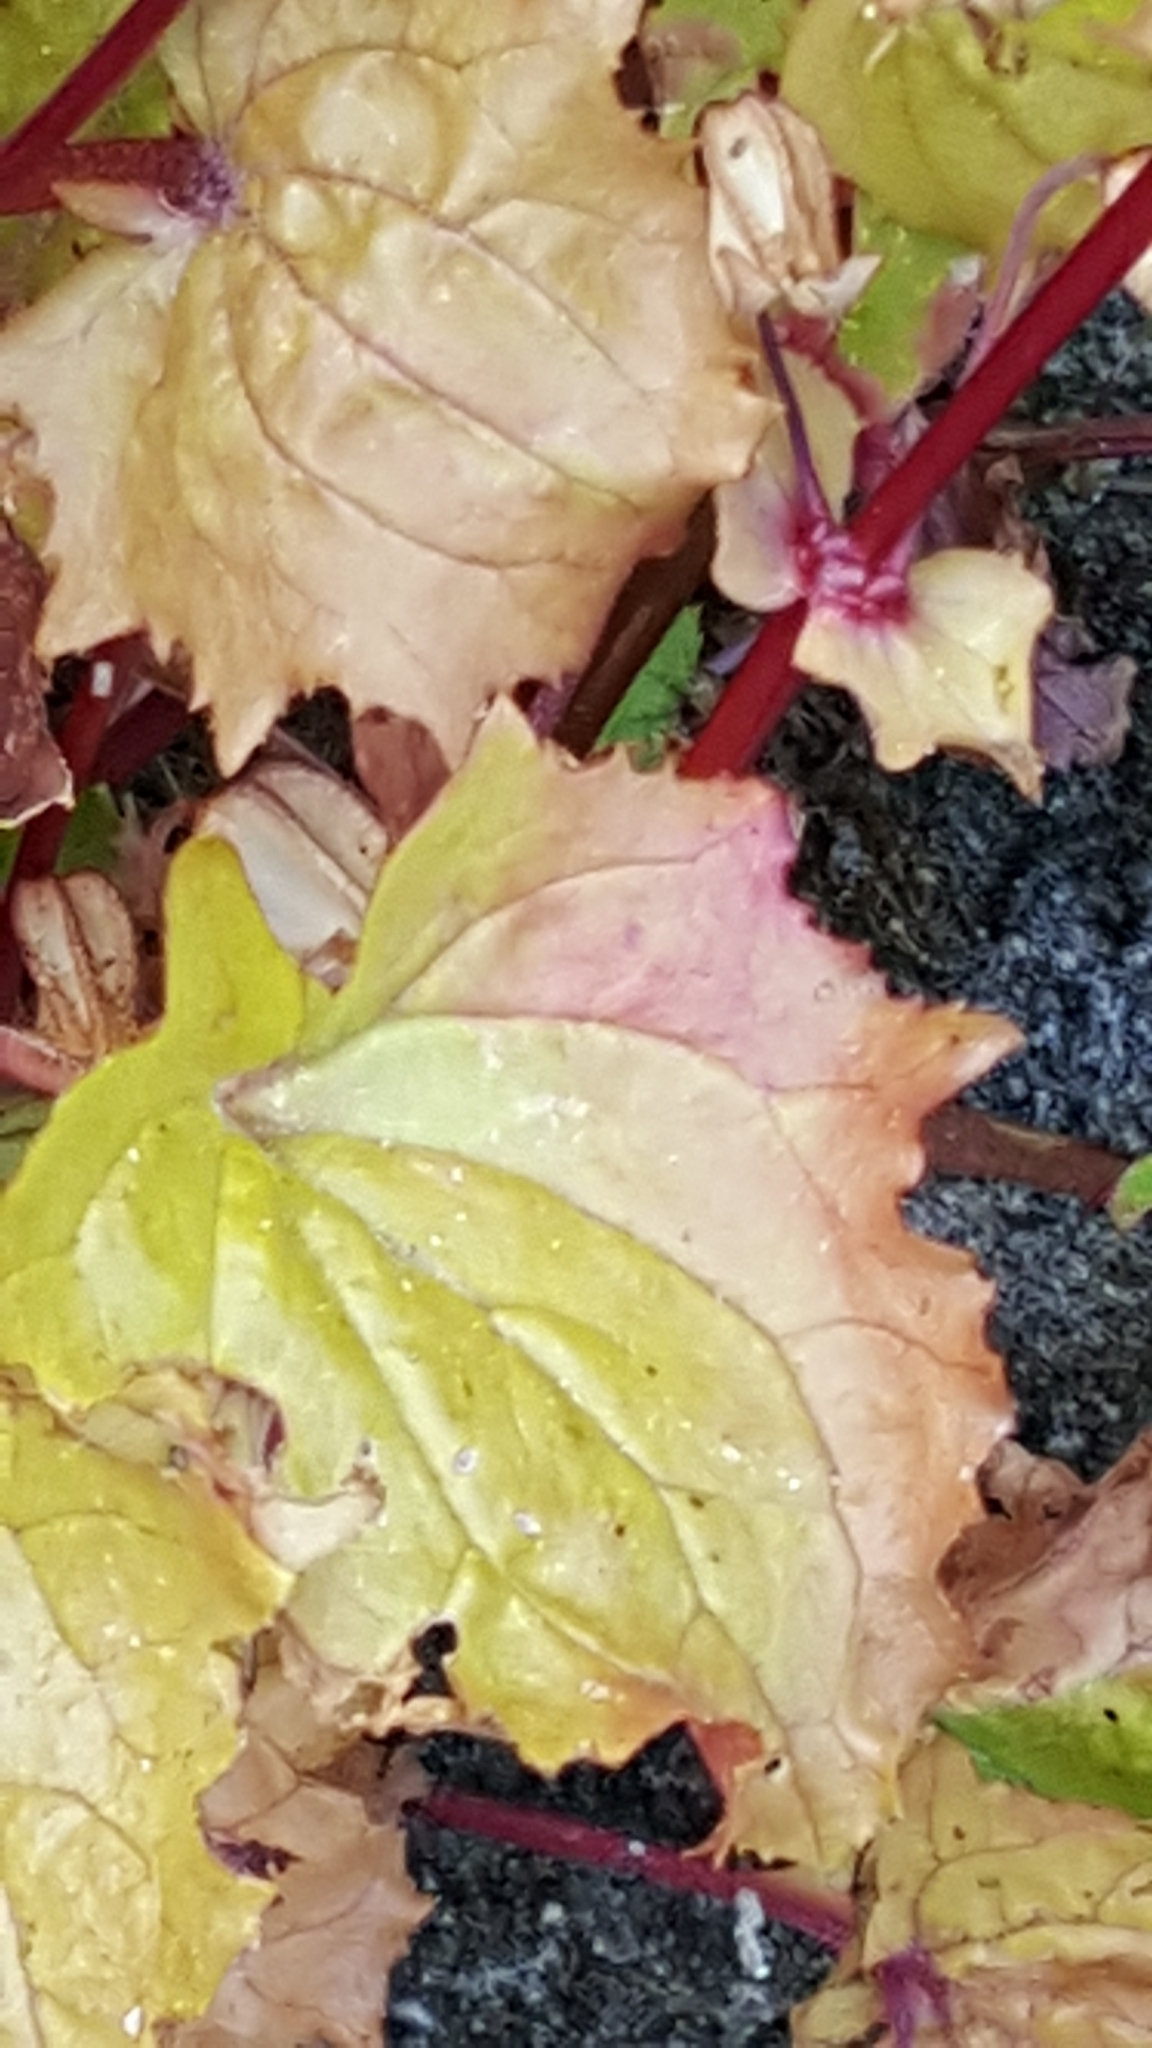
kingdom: Plantae
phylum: Tracheophyta
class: Magnoliopsida
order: Lamiales
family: Phrymaceae
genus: Erythranthe
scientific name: Erythranthe nasuta
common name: Sooke monkeyflower
